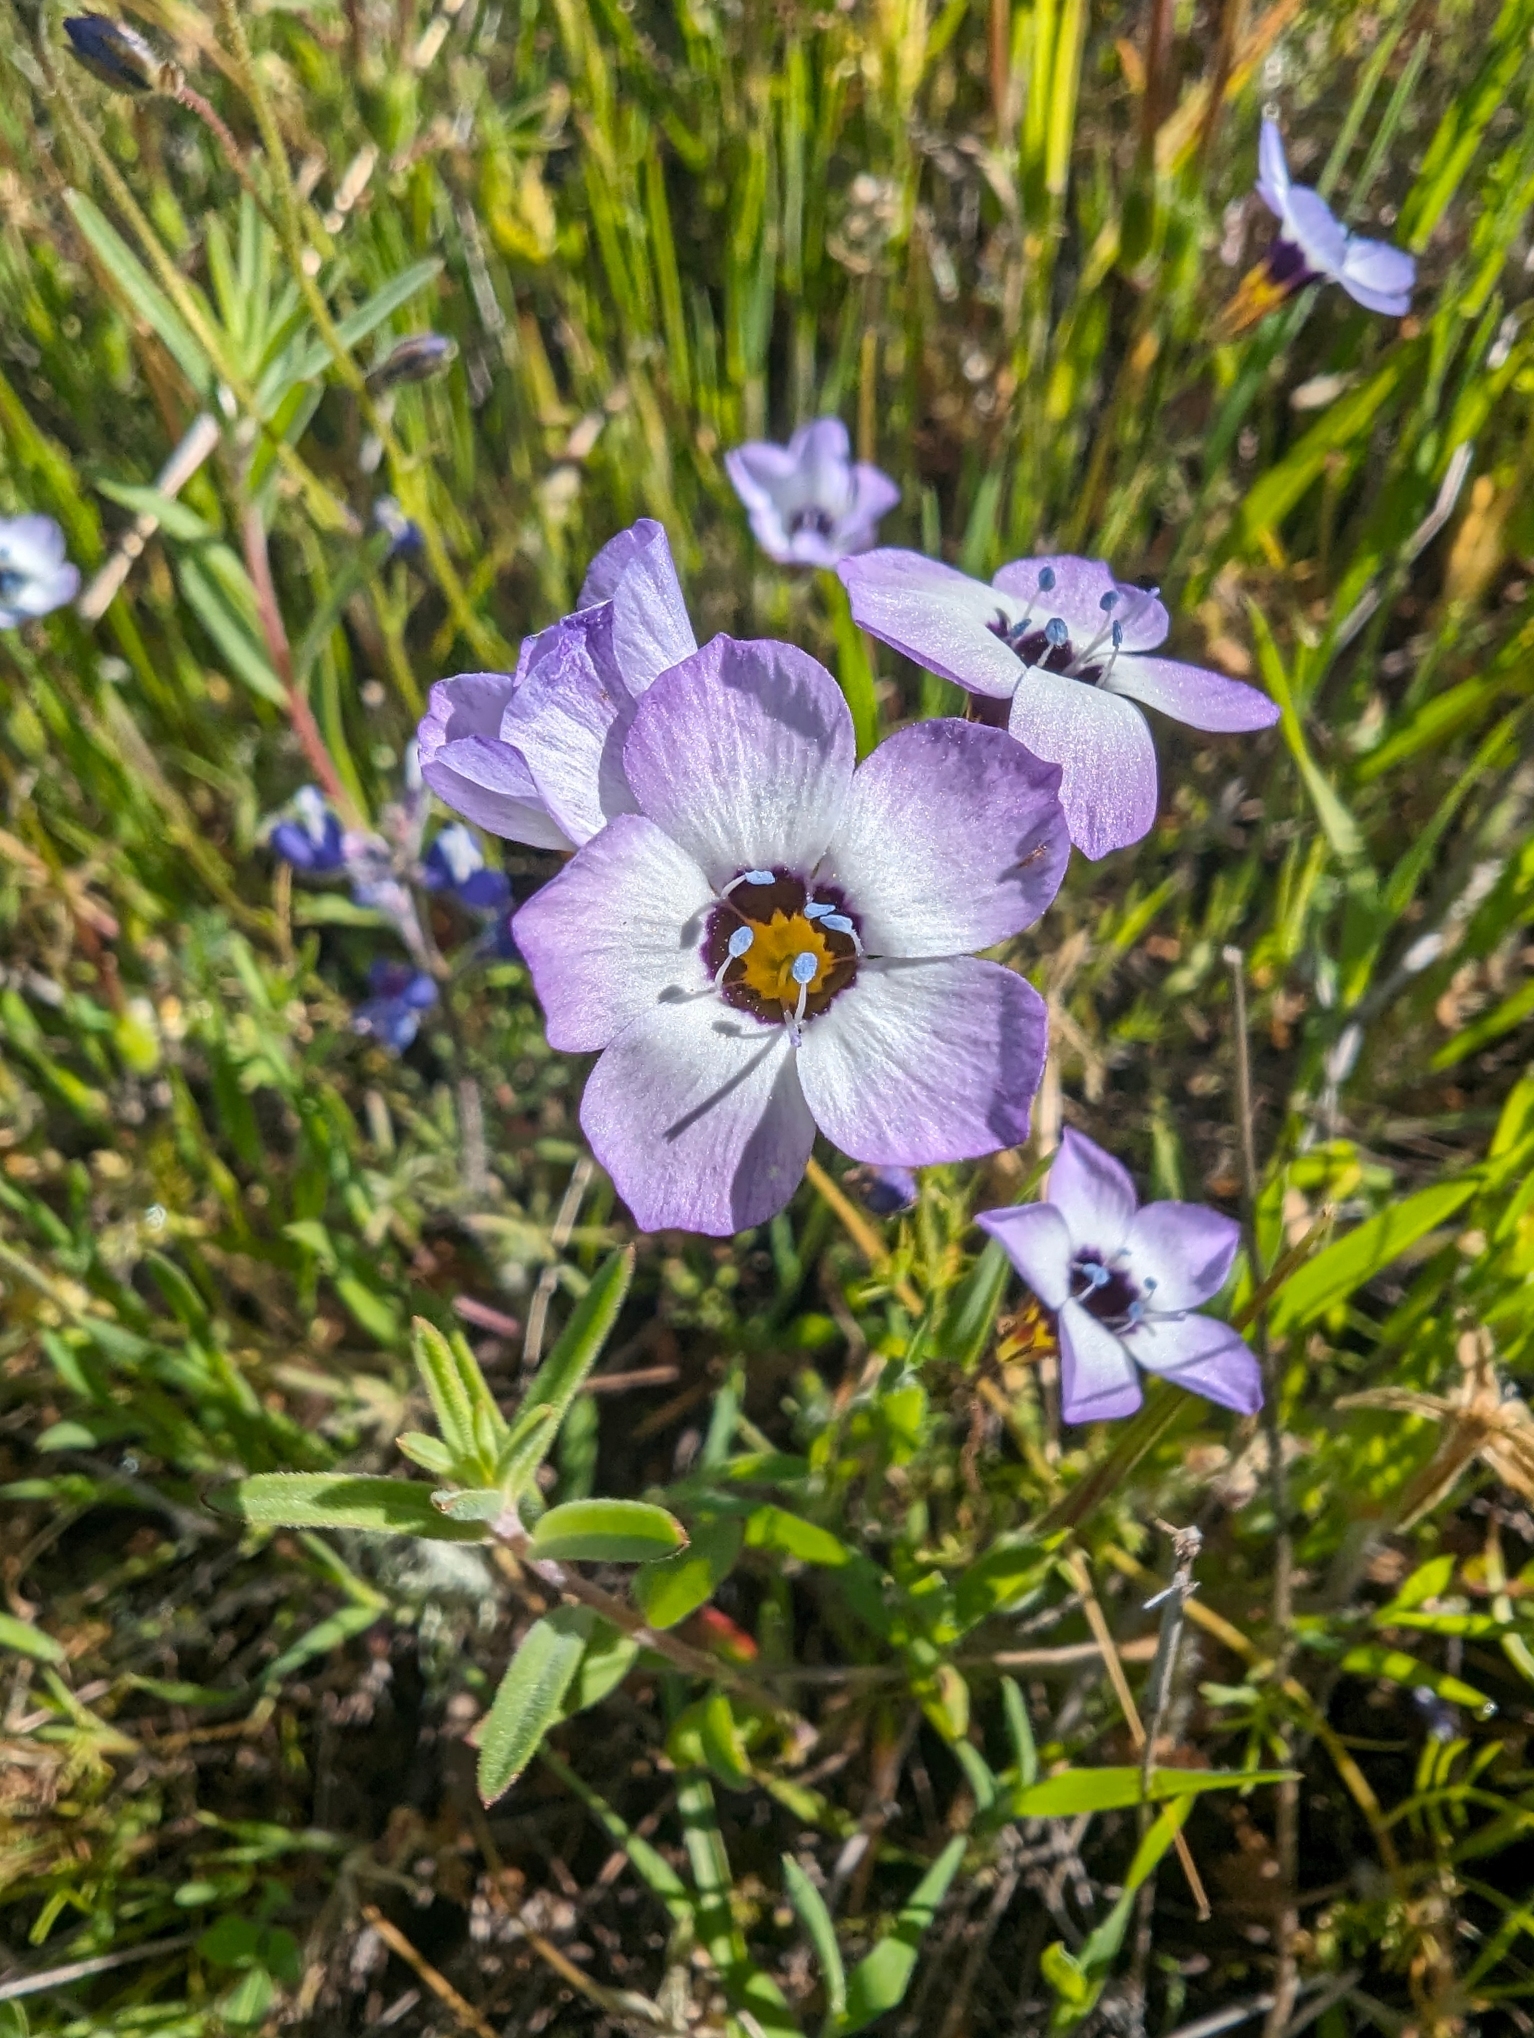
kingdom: Plantae
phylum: Tracheophyta
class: Magnoliopsida
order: Ericales
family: Polemoniaceae
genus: Gilia
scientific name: Gilia tricolor
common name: Bird's-eyes
